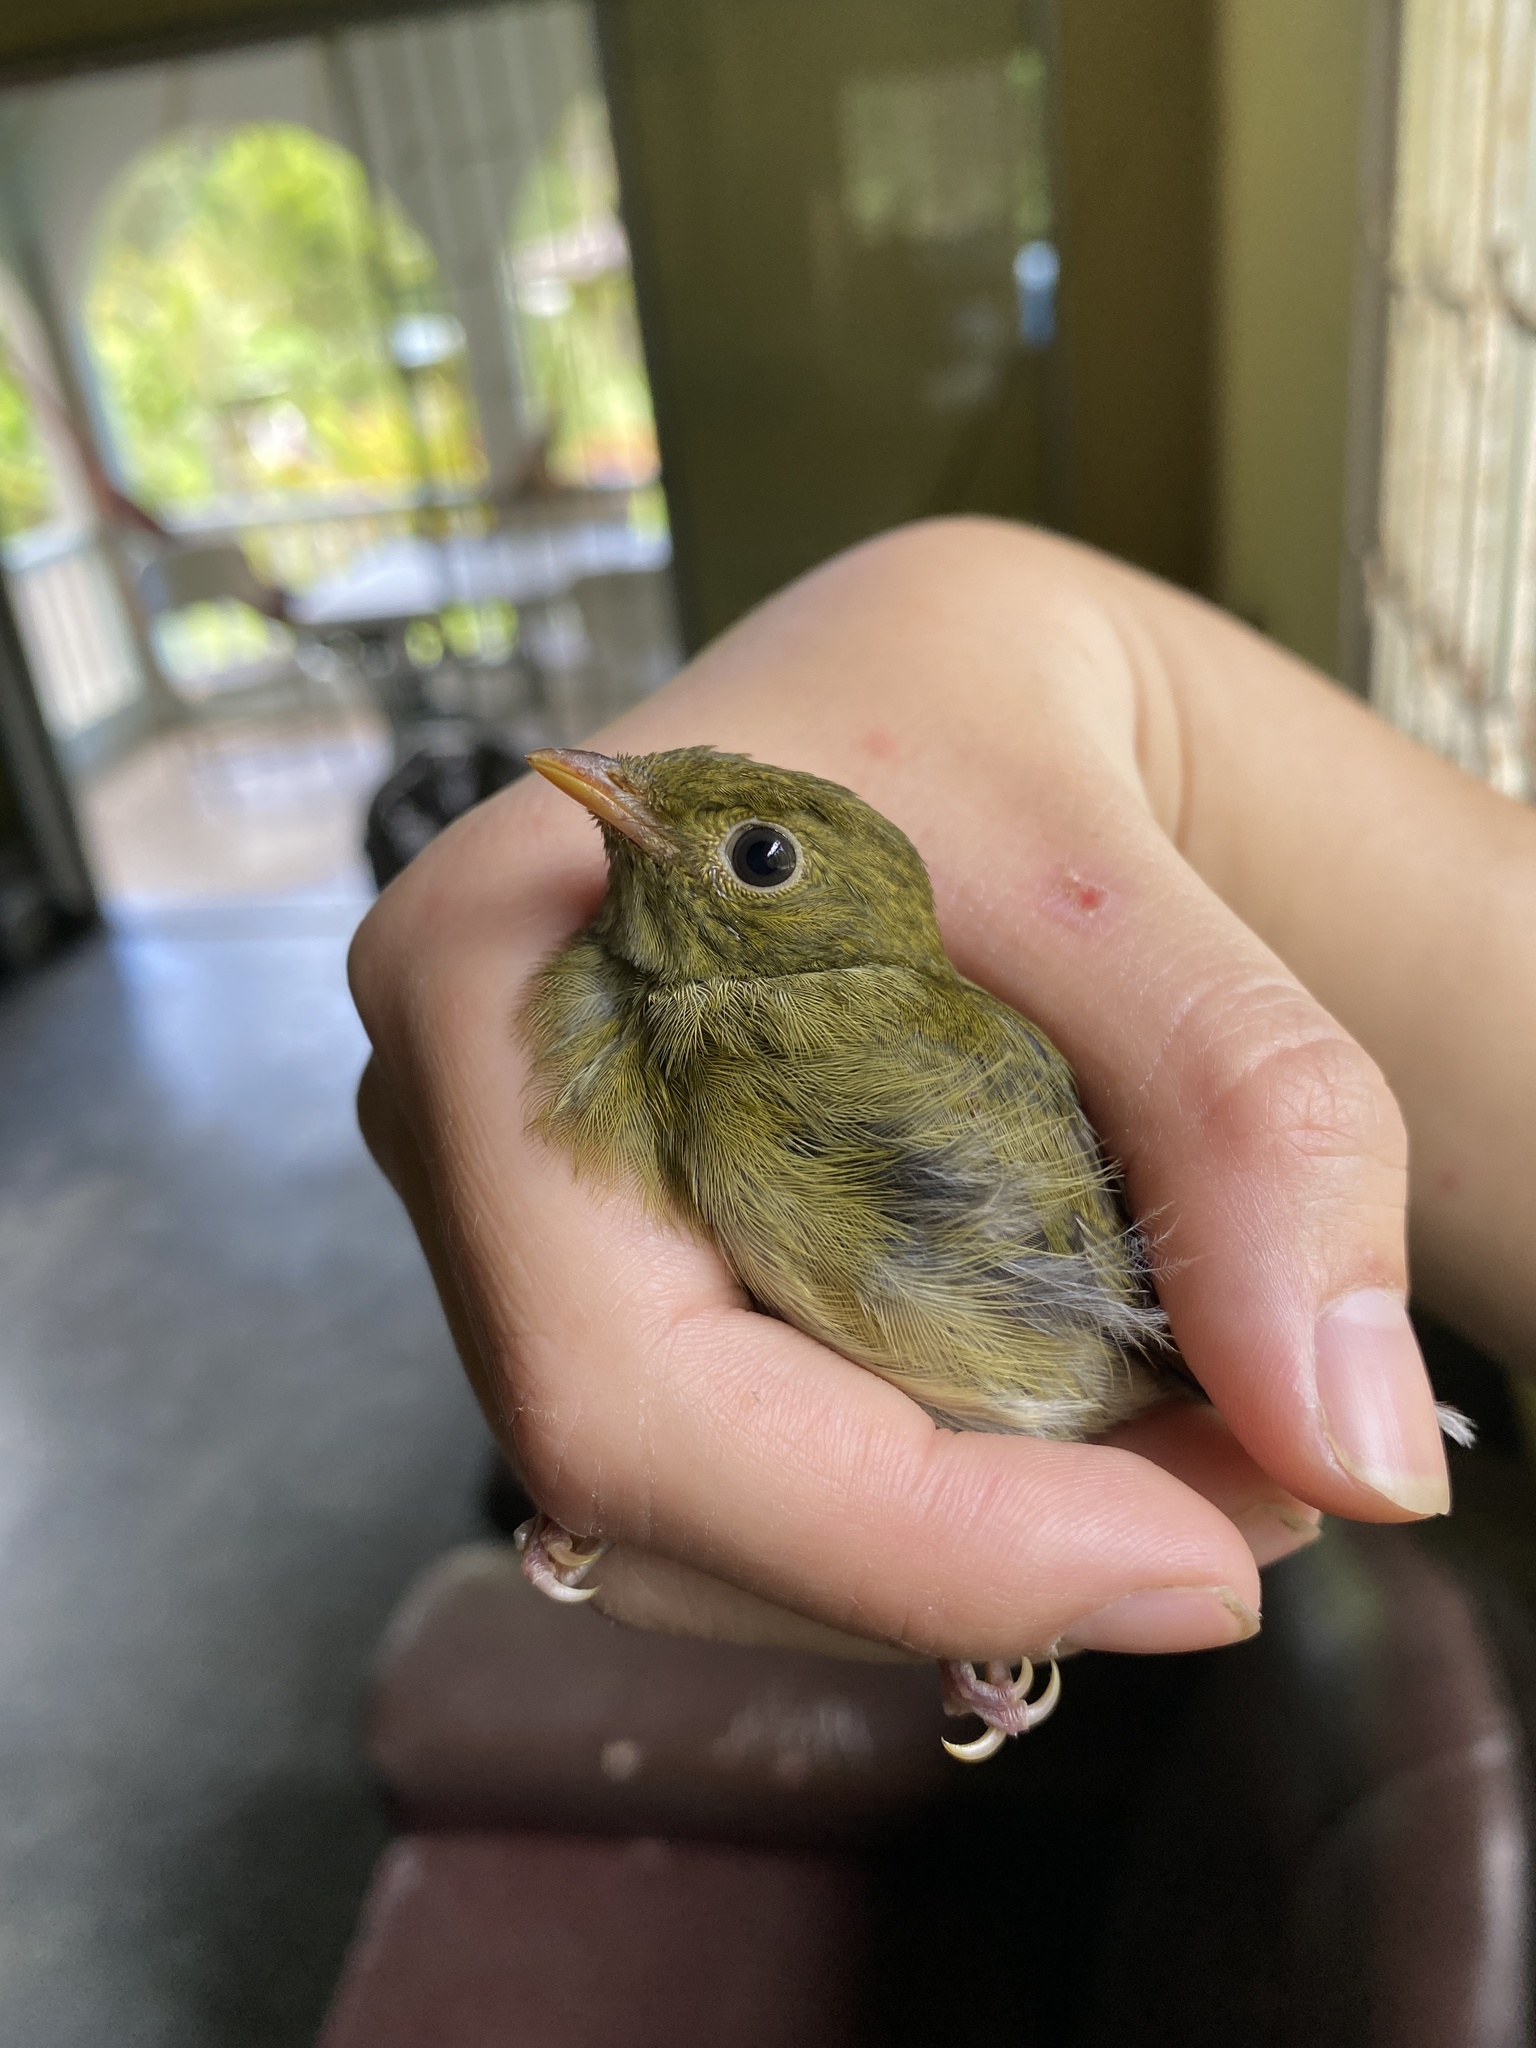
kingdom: Animalia
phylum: Chordata
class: Aves
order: Passeriformes
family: Pipridae
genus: Manacus
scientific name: Manacus manacus
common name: White-bearded manakin
